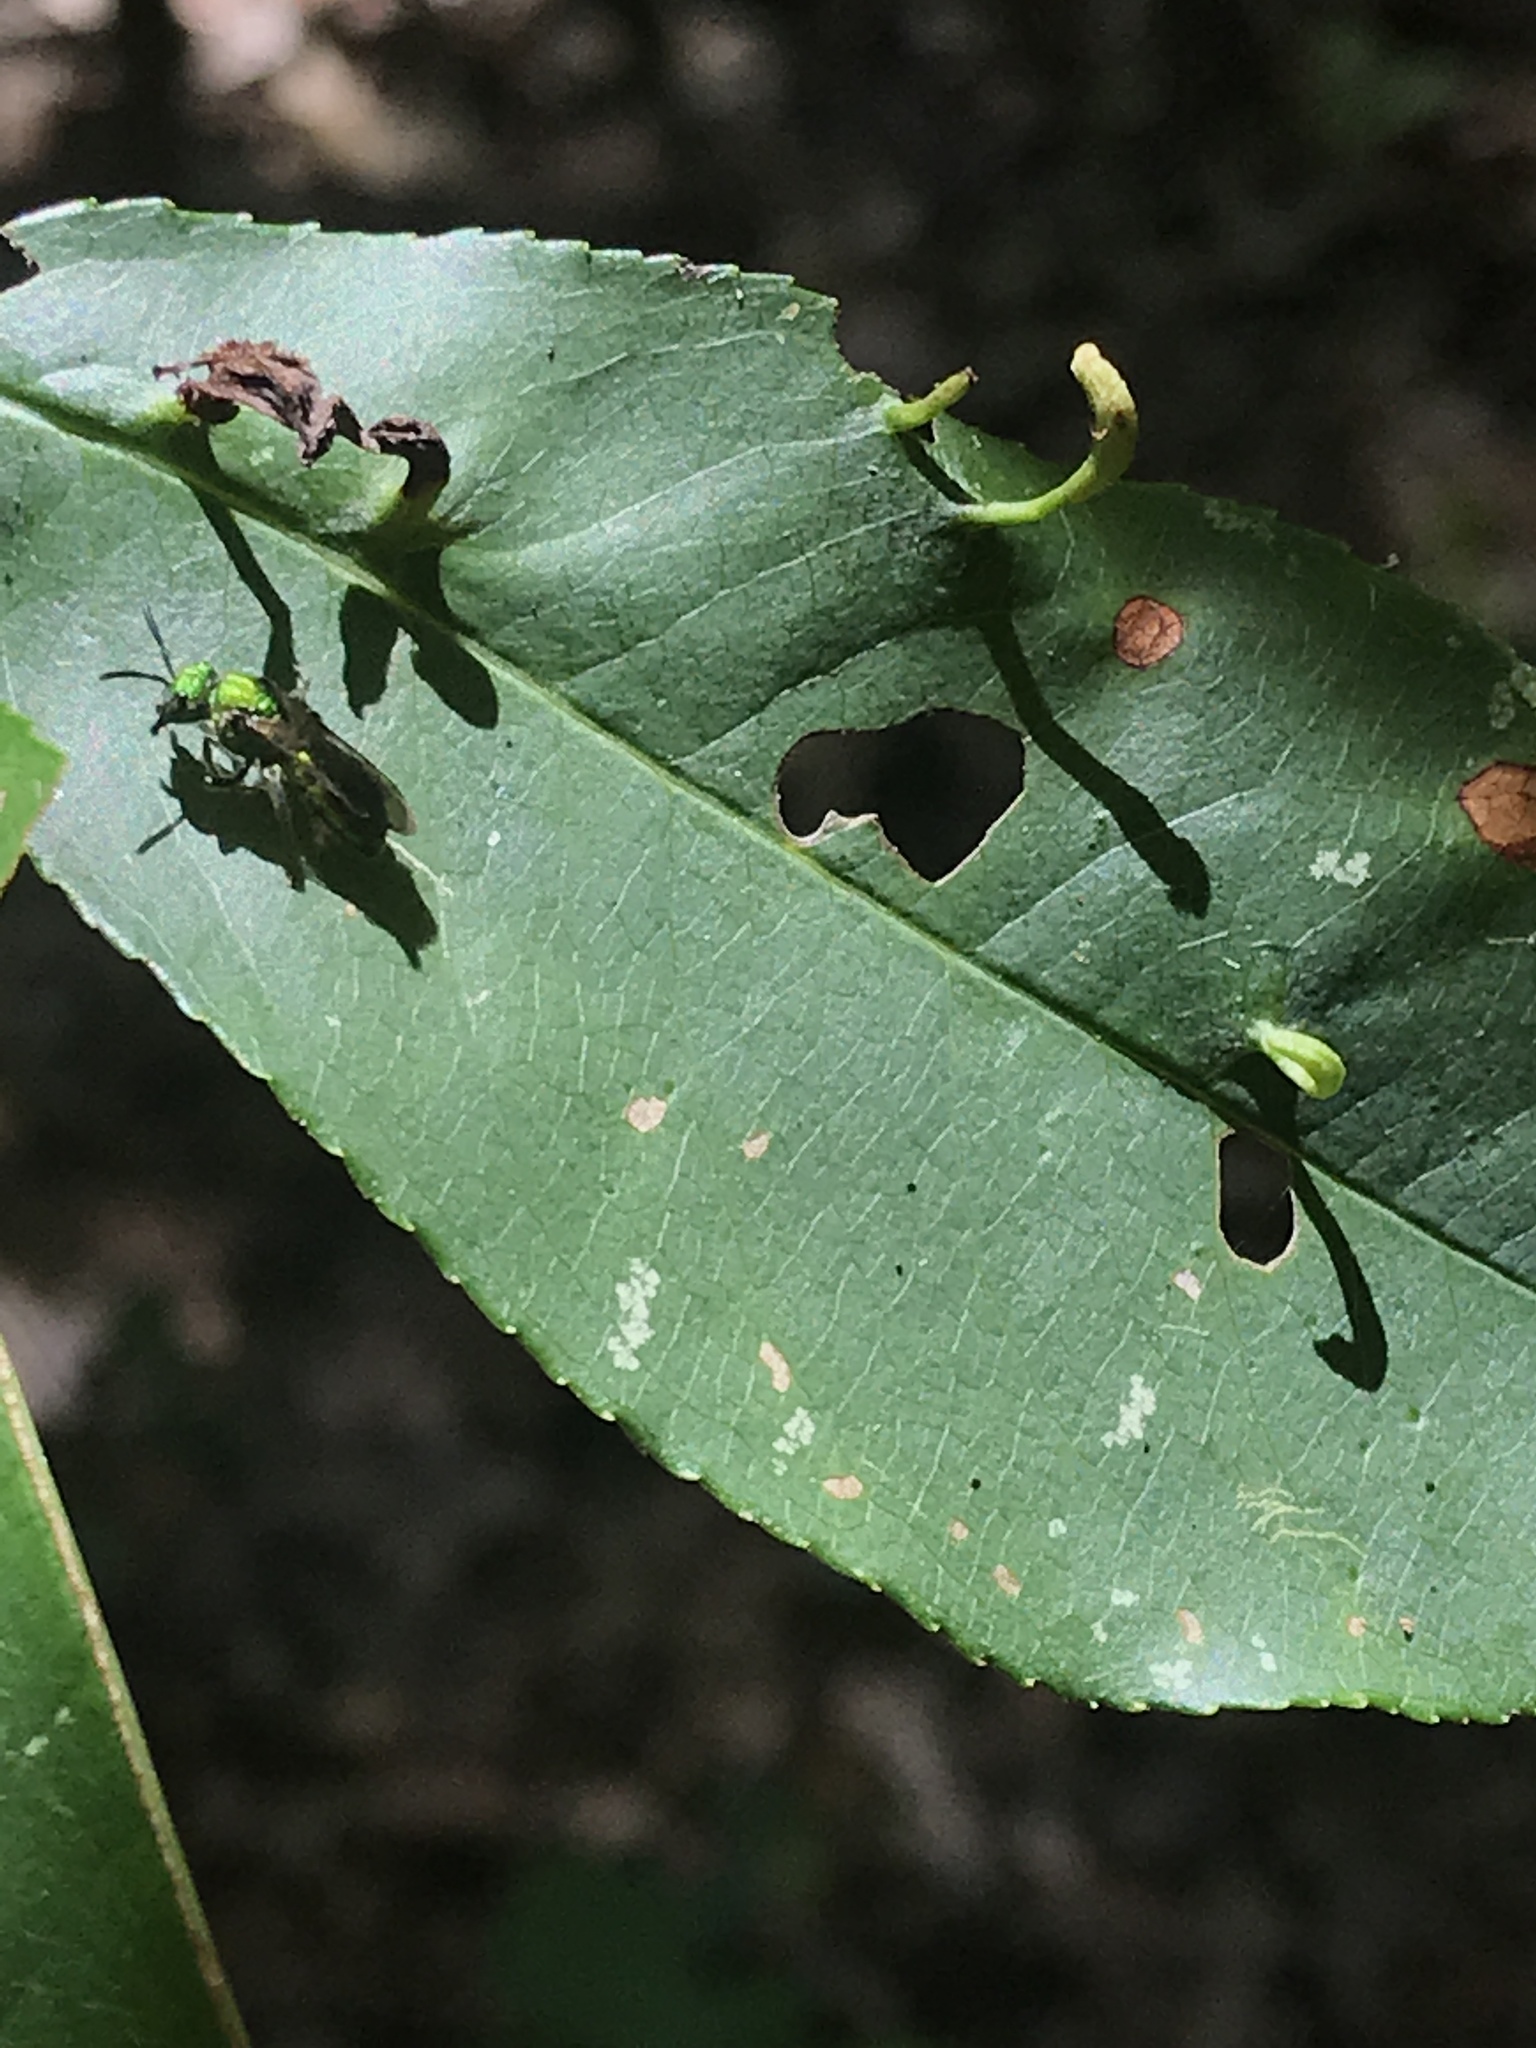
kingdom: Animalia
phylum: Arthropoda
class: Insecta
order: Hymenoptera
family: Halictidae
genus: Augochlora
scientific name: Augochlora pura
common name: Pure green sweat bee
